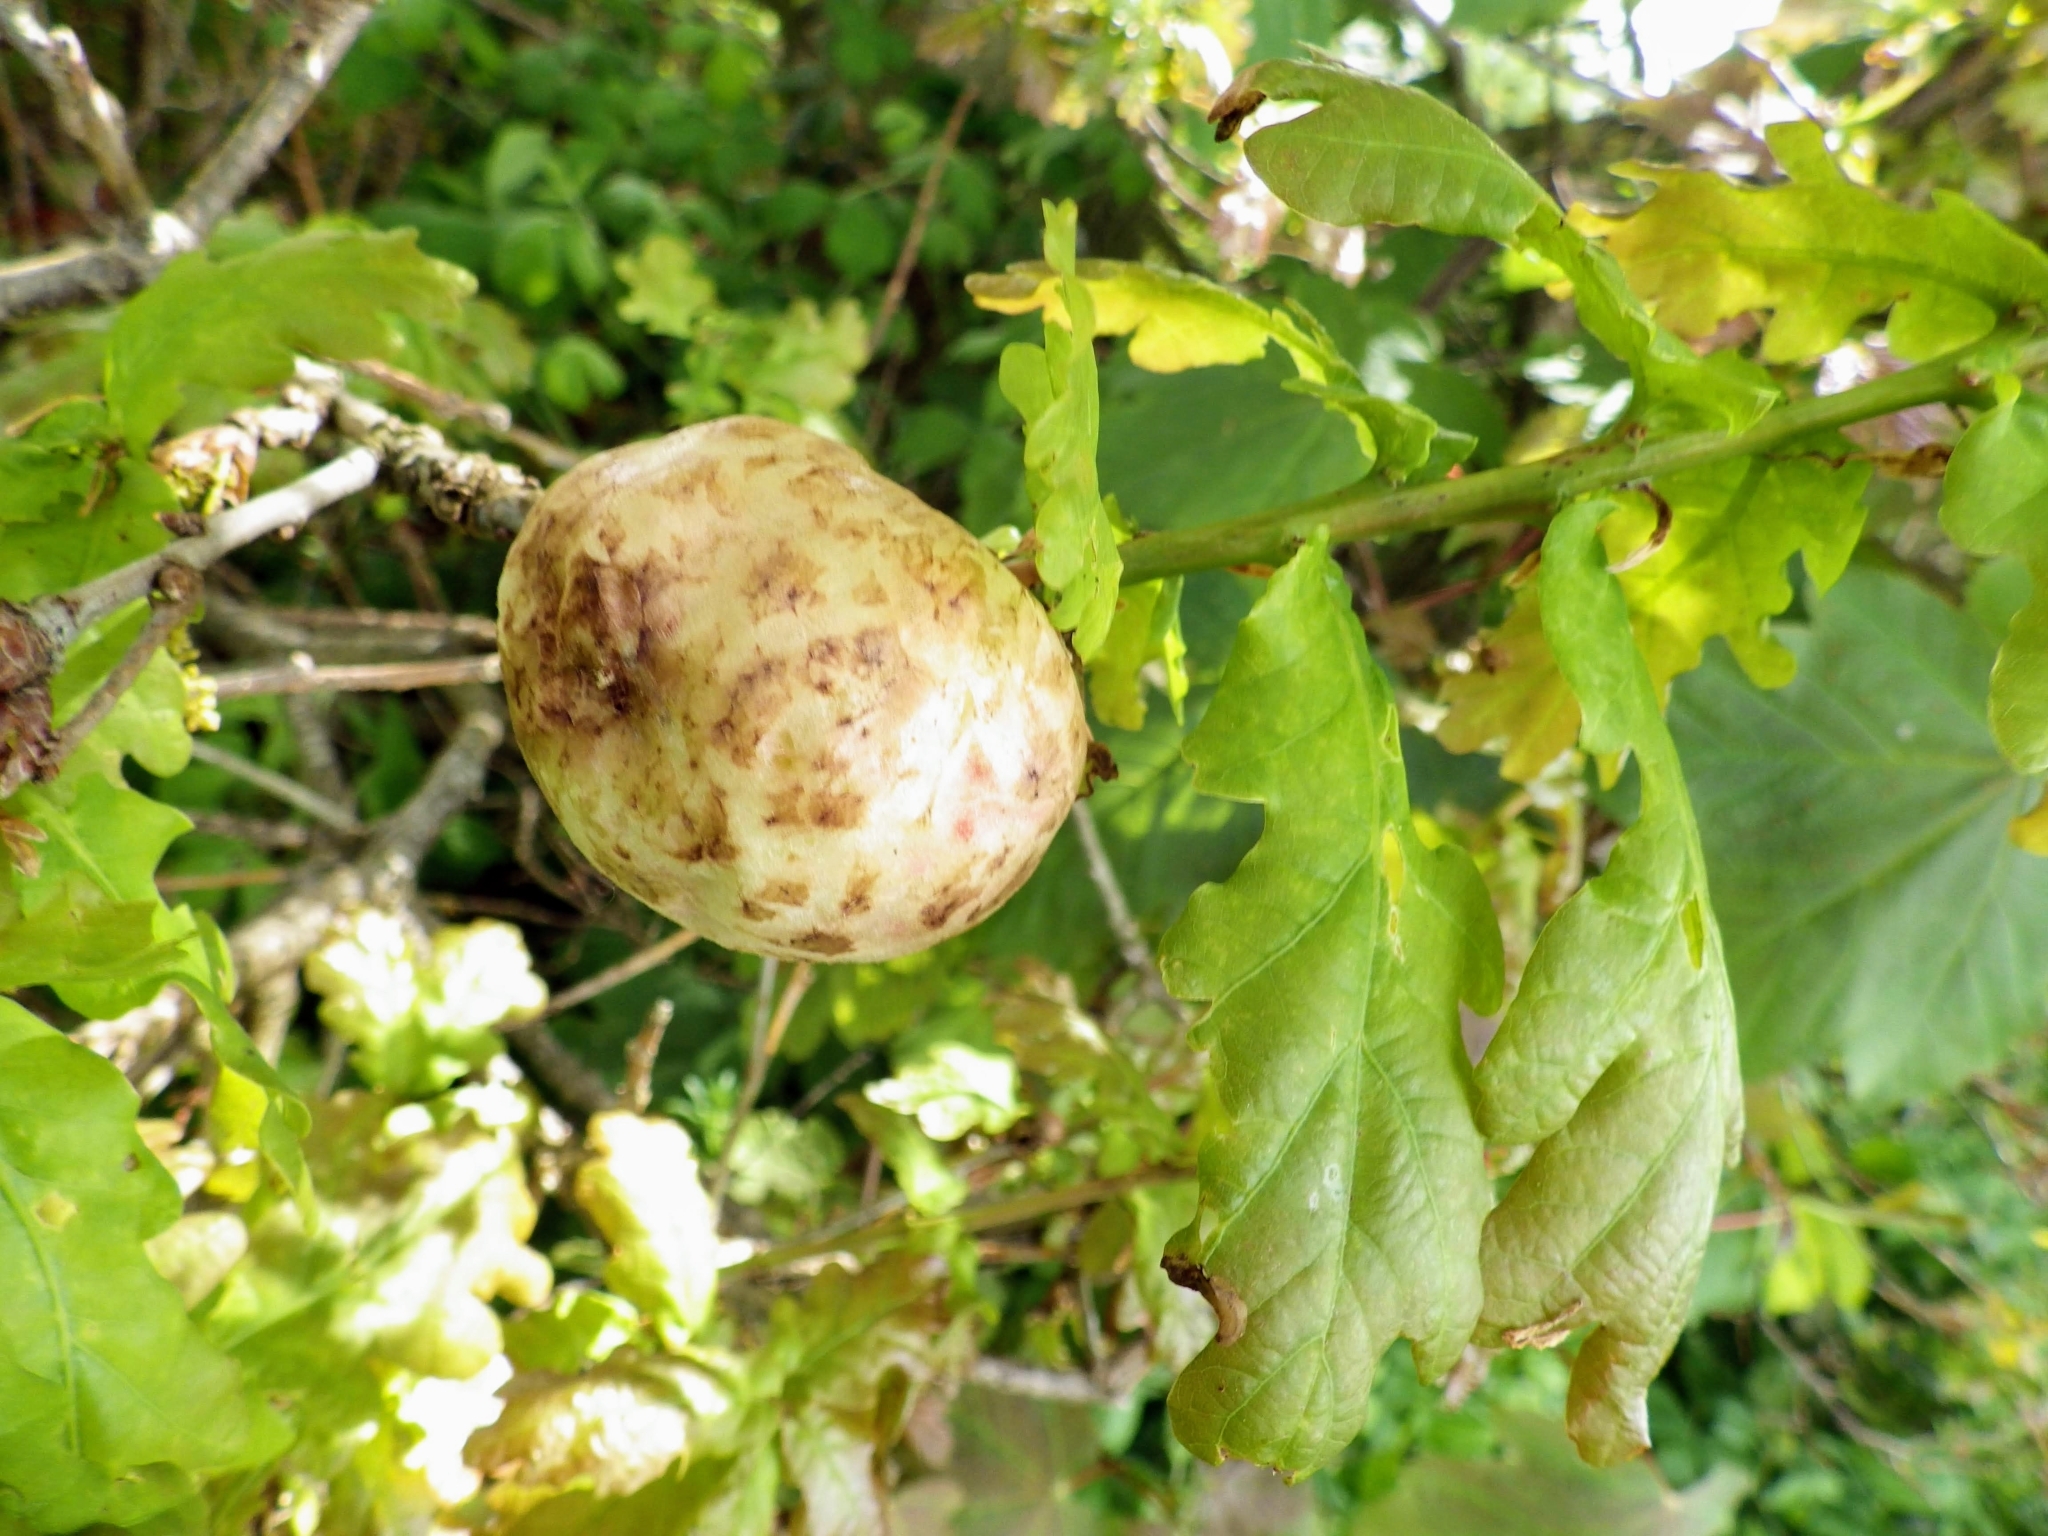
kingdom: Animalia
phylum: Arthropoda
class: Insecta
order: Hymenoptera
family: Cynipidae
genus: Biorhiza
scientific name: Biorhiza pallida
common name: Oak apple
